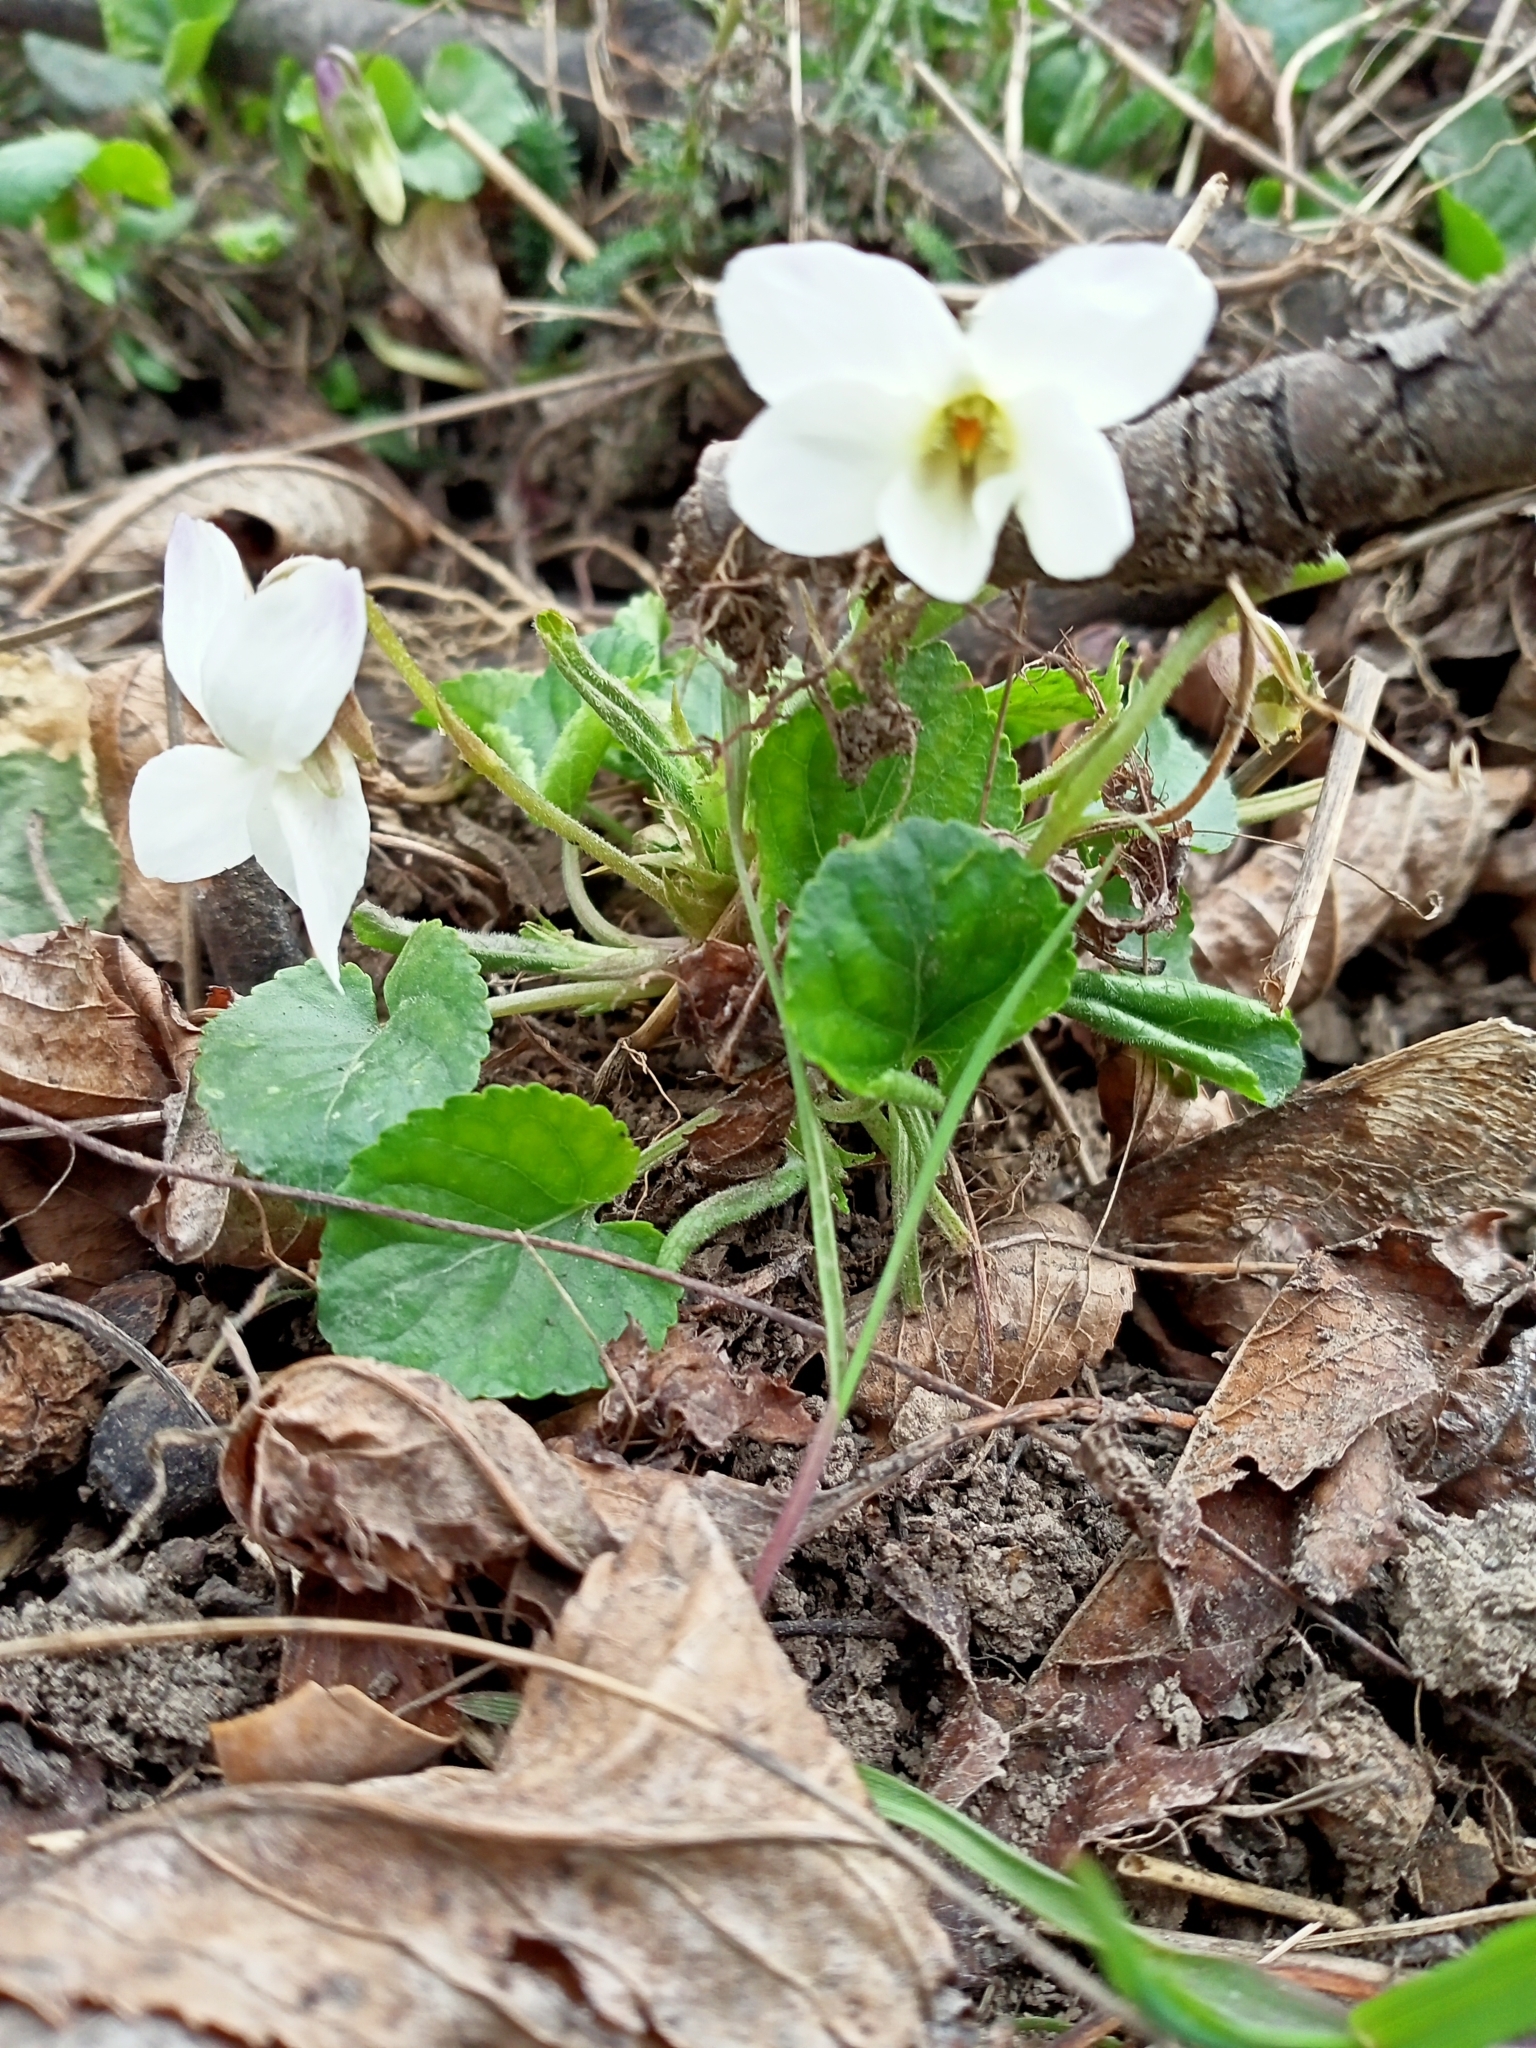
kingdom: Plantae
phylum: Tracheophyta
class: Magnoliopsida
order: Malpighiales
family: Violaceae
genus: Viola
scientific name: Viola odorata
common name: Sweet violet
